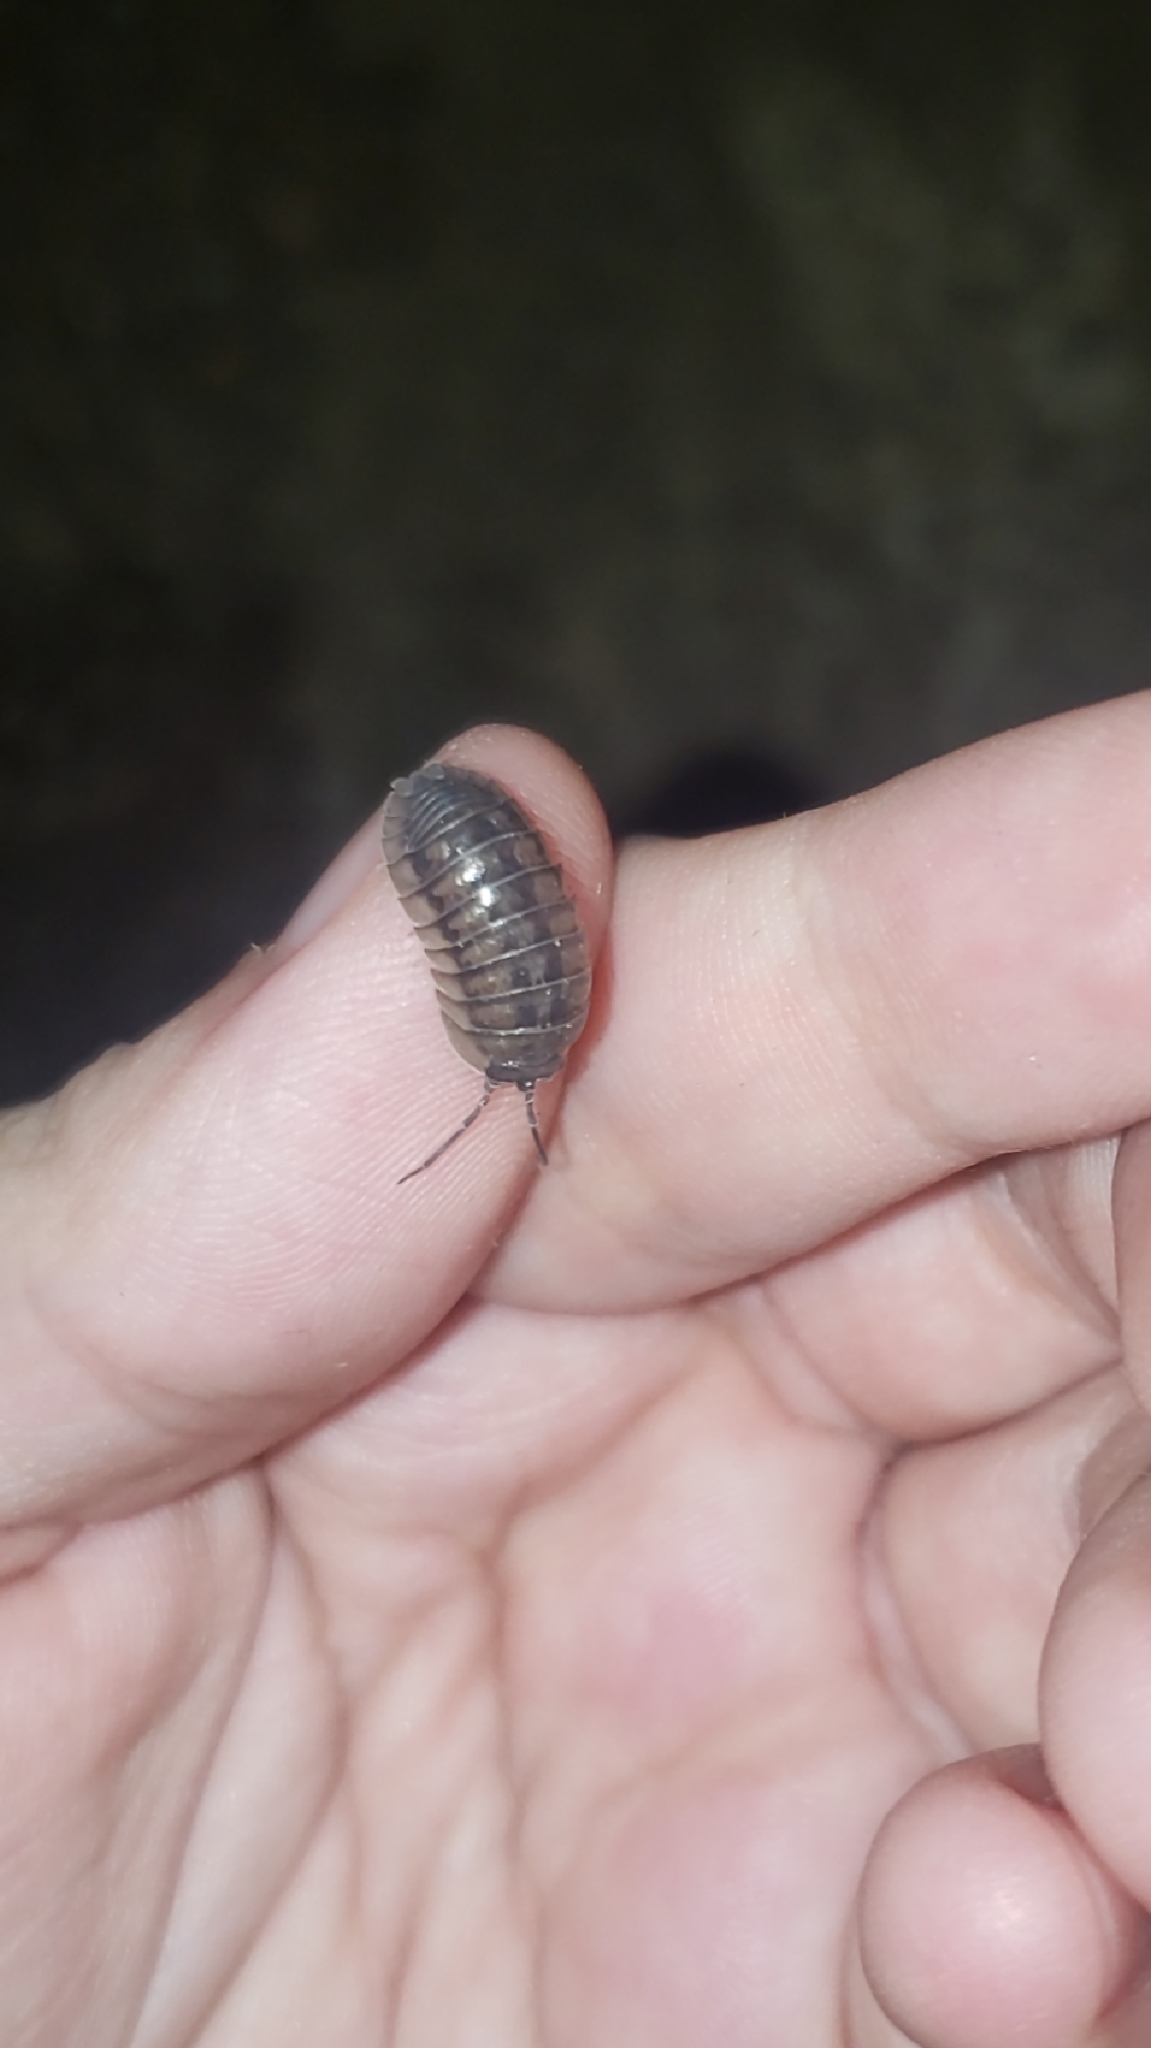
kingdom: Animalia
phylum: Arthropoda
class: Malacostraca
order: Isopoda
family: Armadillidiidae
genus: Armadillidium
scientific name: Armadillidium nasatum
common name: Isopod
